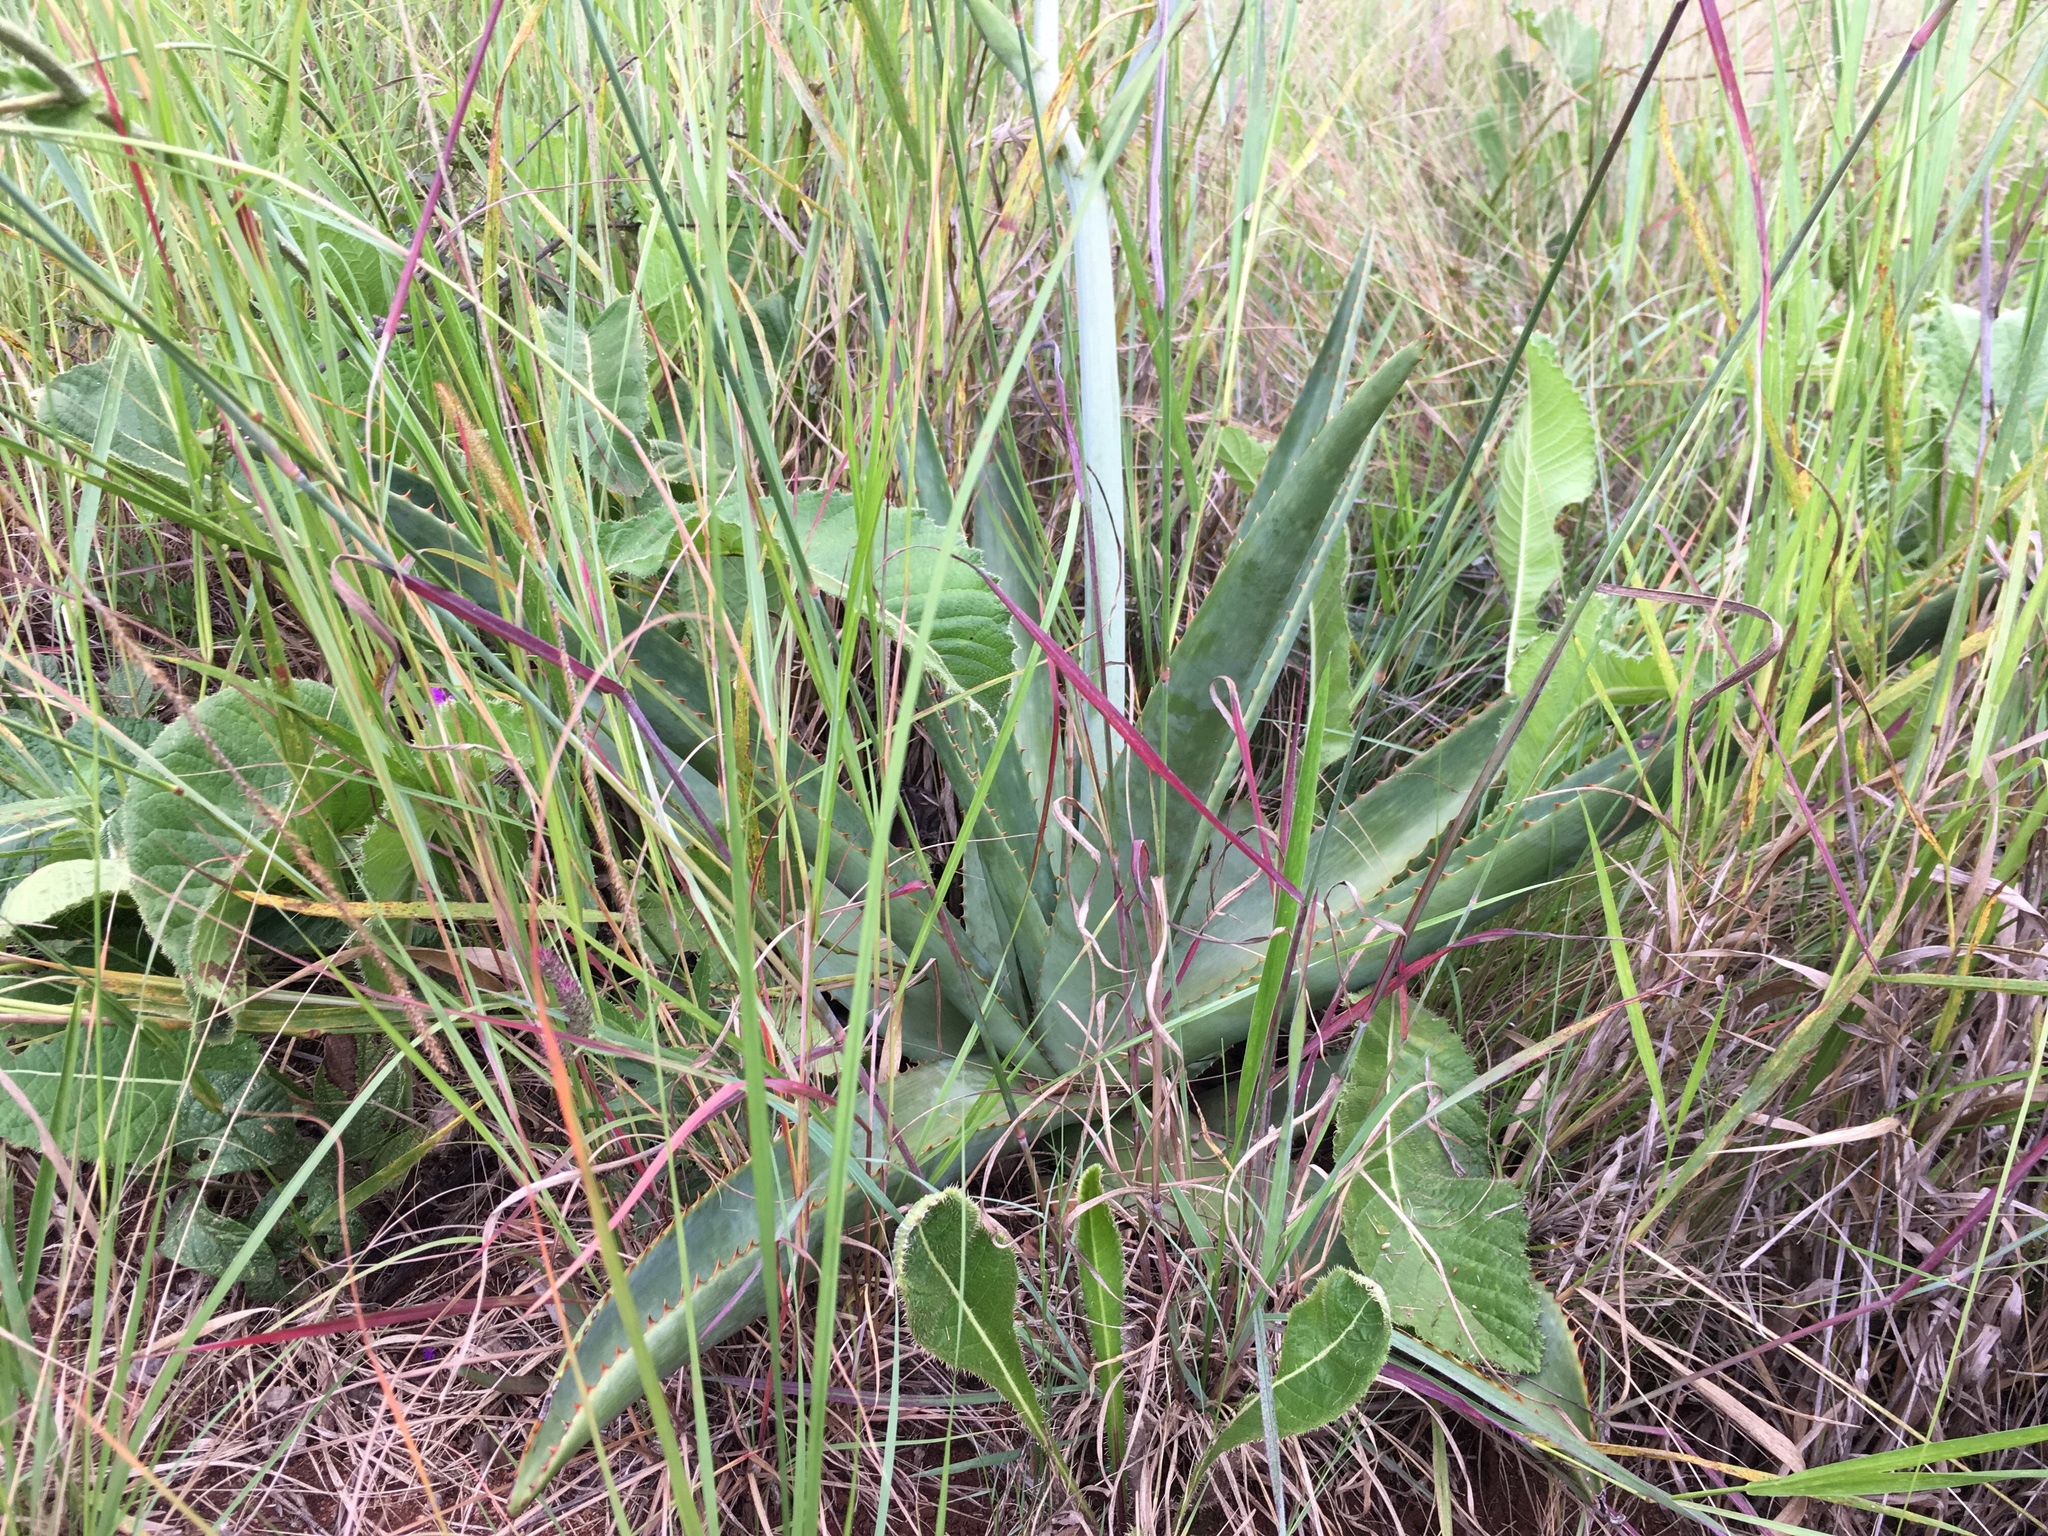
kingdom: Plantae
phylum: Tracheophyta
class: Liliopsida
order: Asparagales
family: Asphodelaceae
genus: Aloe
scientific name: Aloe simii
